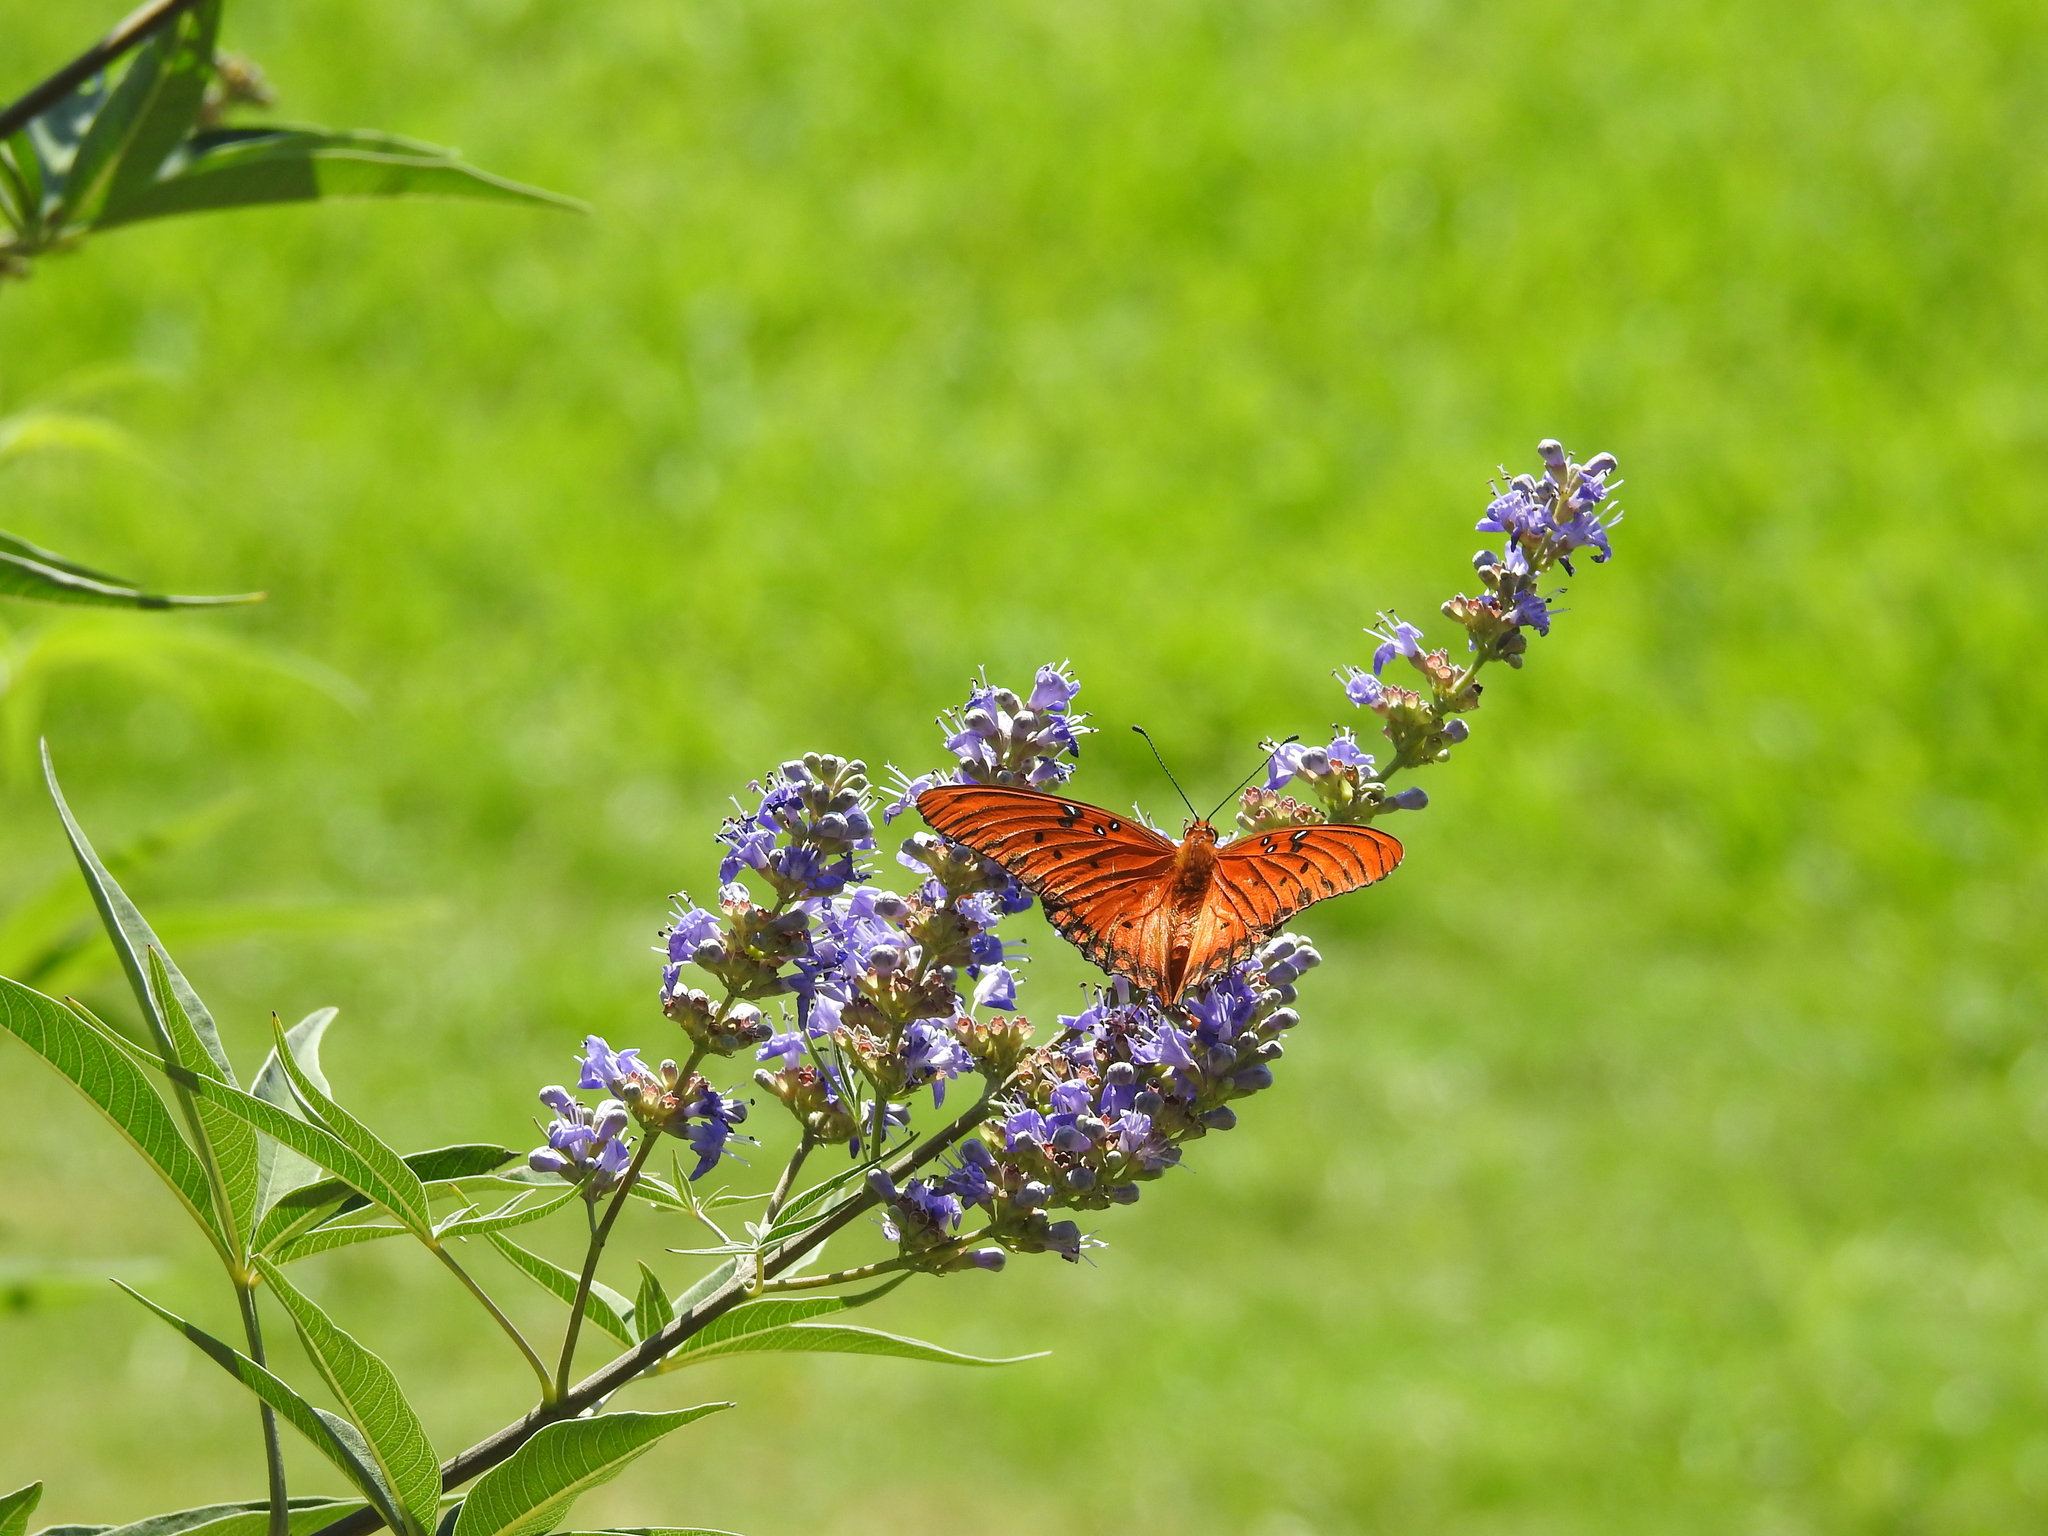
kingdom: Animalia
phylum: Arthropoda
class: Insecta
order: Lepidoptera
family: Nymphalidae
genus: Dione
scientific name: Dione vanillae
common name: Gulf fritillary
